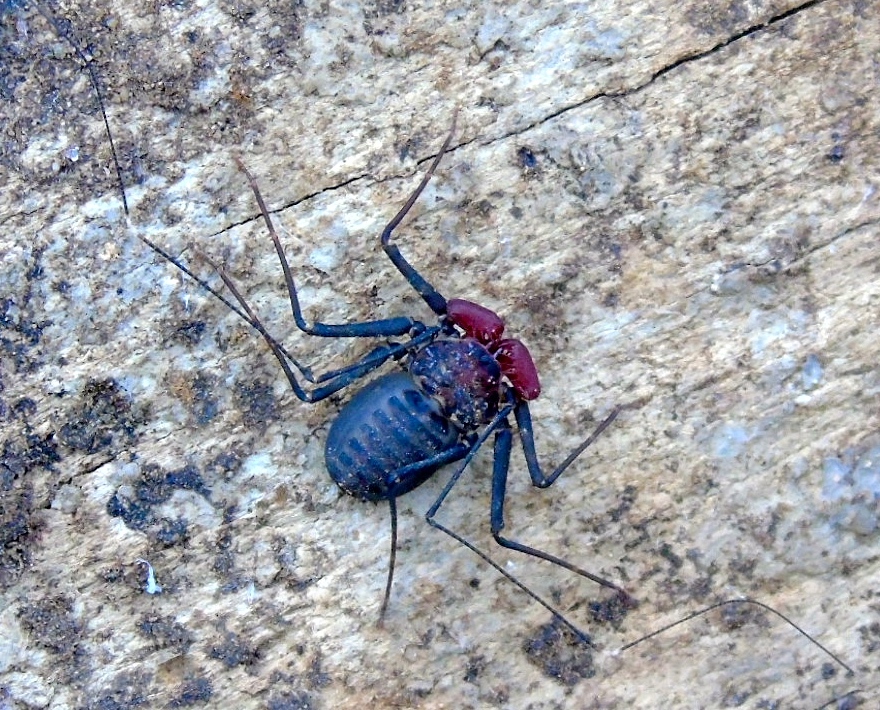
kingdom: Animalia
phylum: Arthropoda
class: Arachnida
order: Amblypygi
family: Phrynidae
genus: Phrynus
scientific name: Phrynus operculatus
